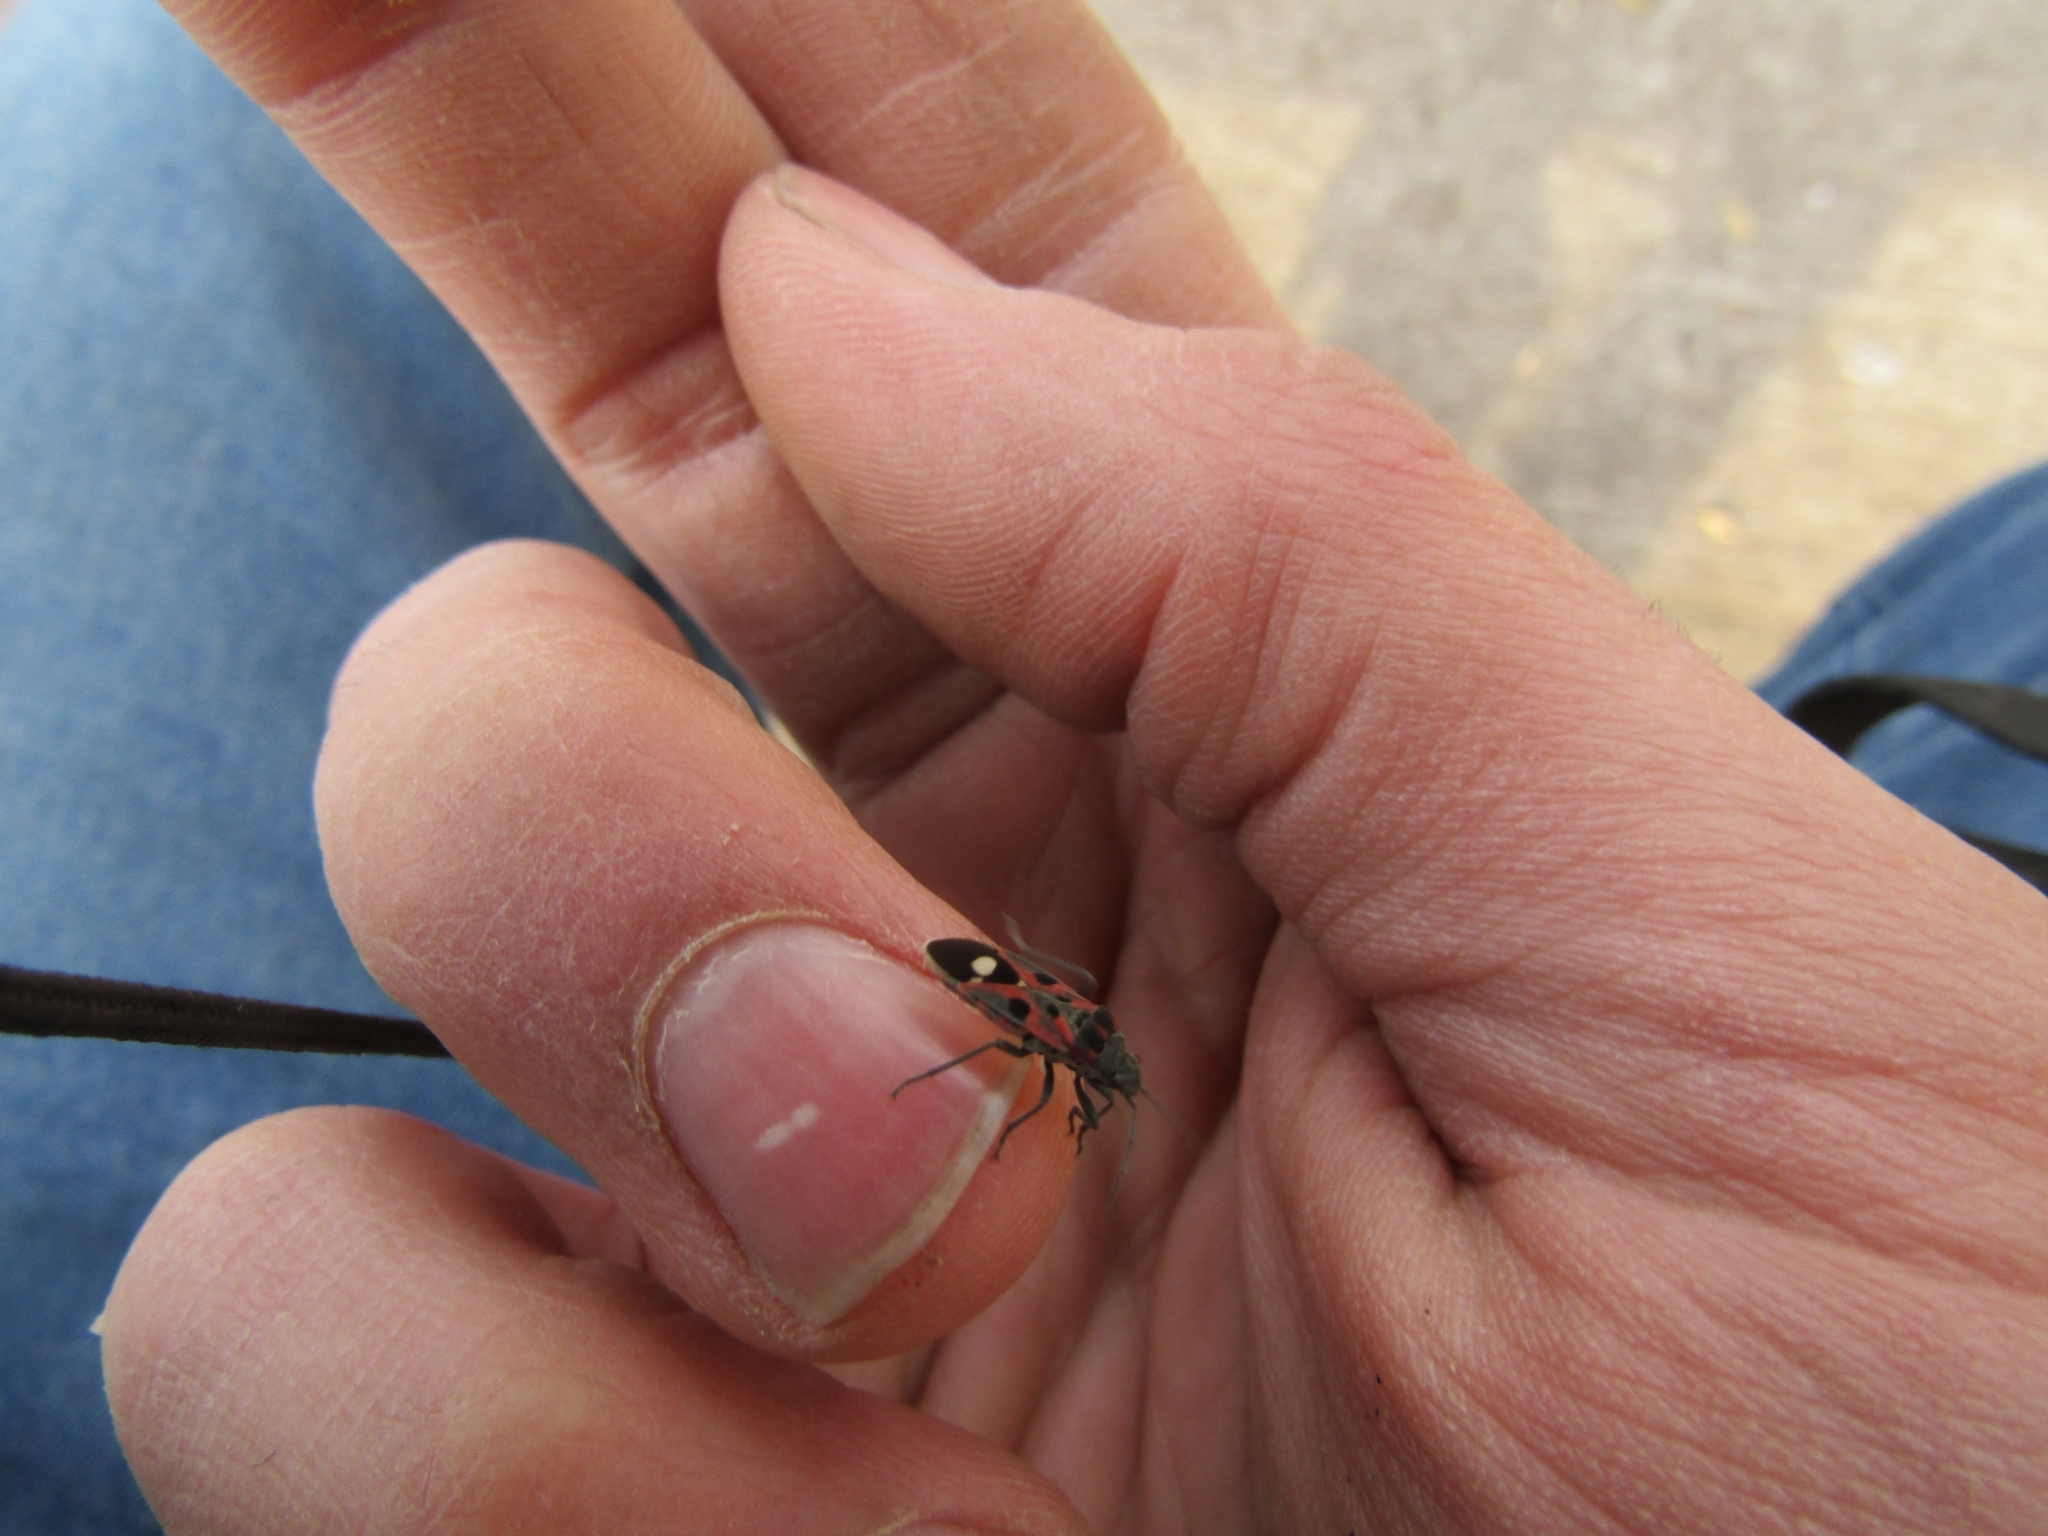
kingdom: Animalia
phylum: Arthropoda
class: Insecta
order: Hemiptera
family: Lygaeidae
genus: Lygaeus
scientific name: Lygaeus alboornatus
